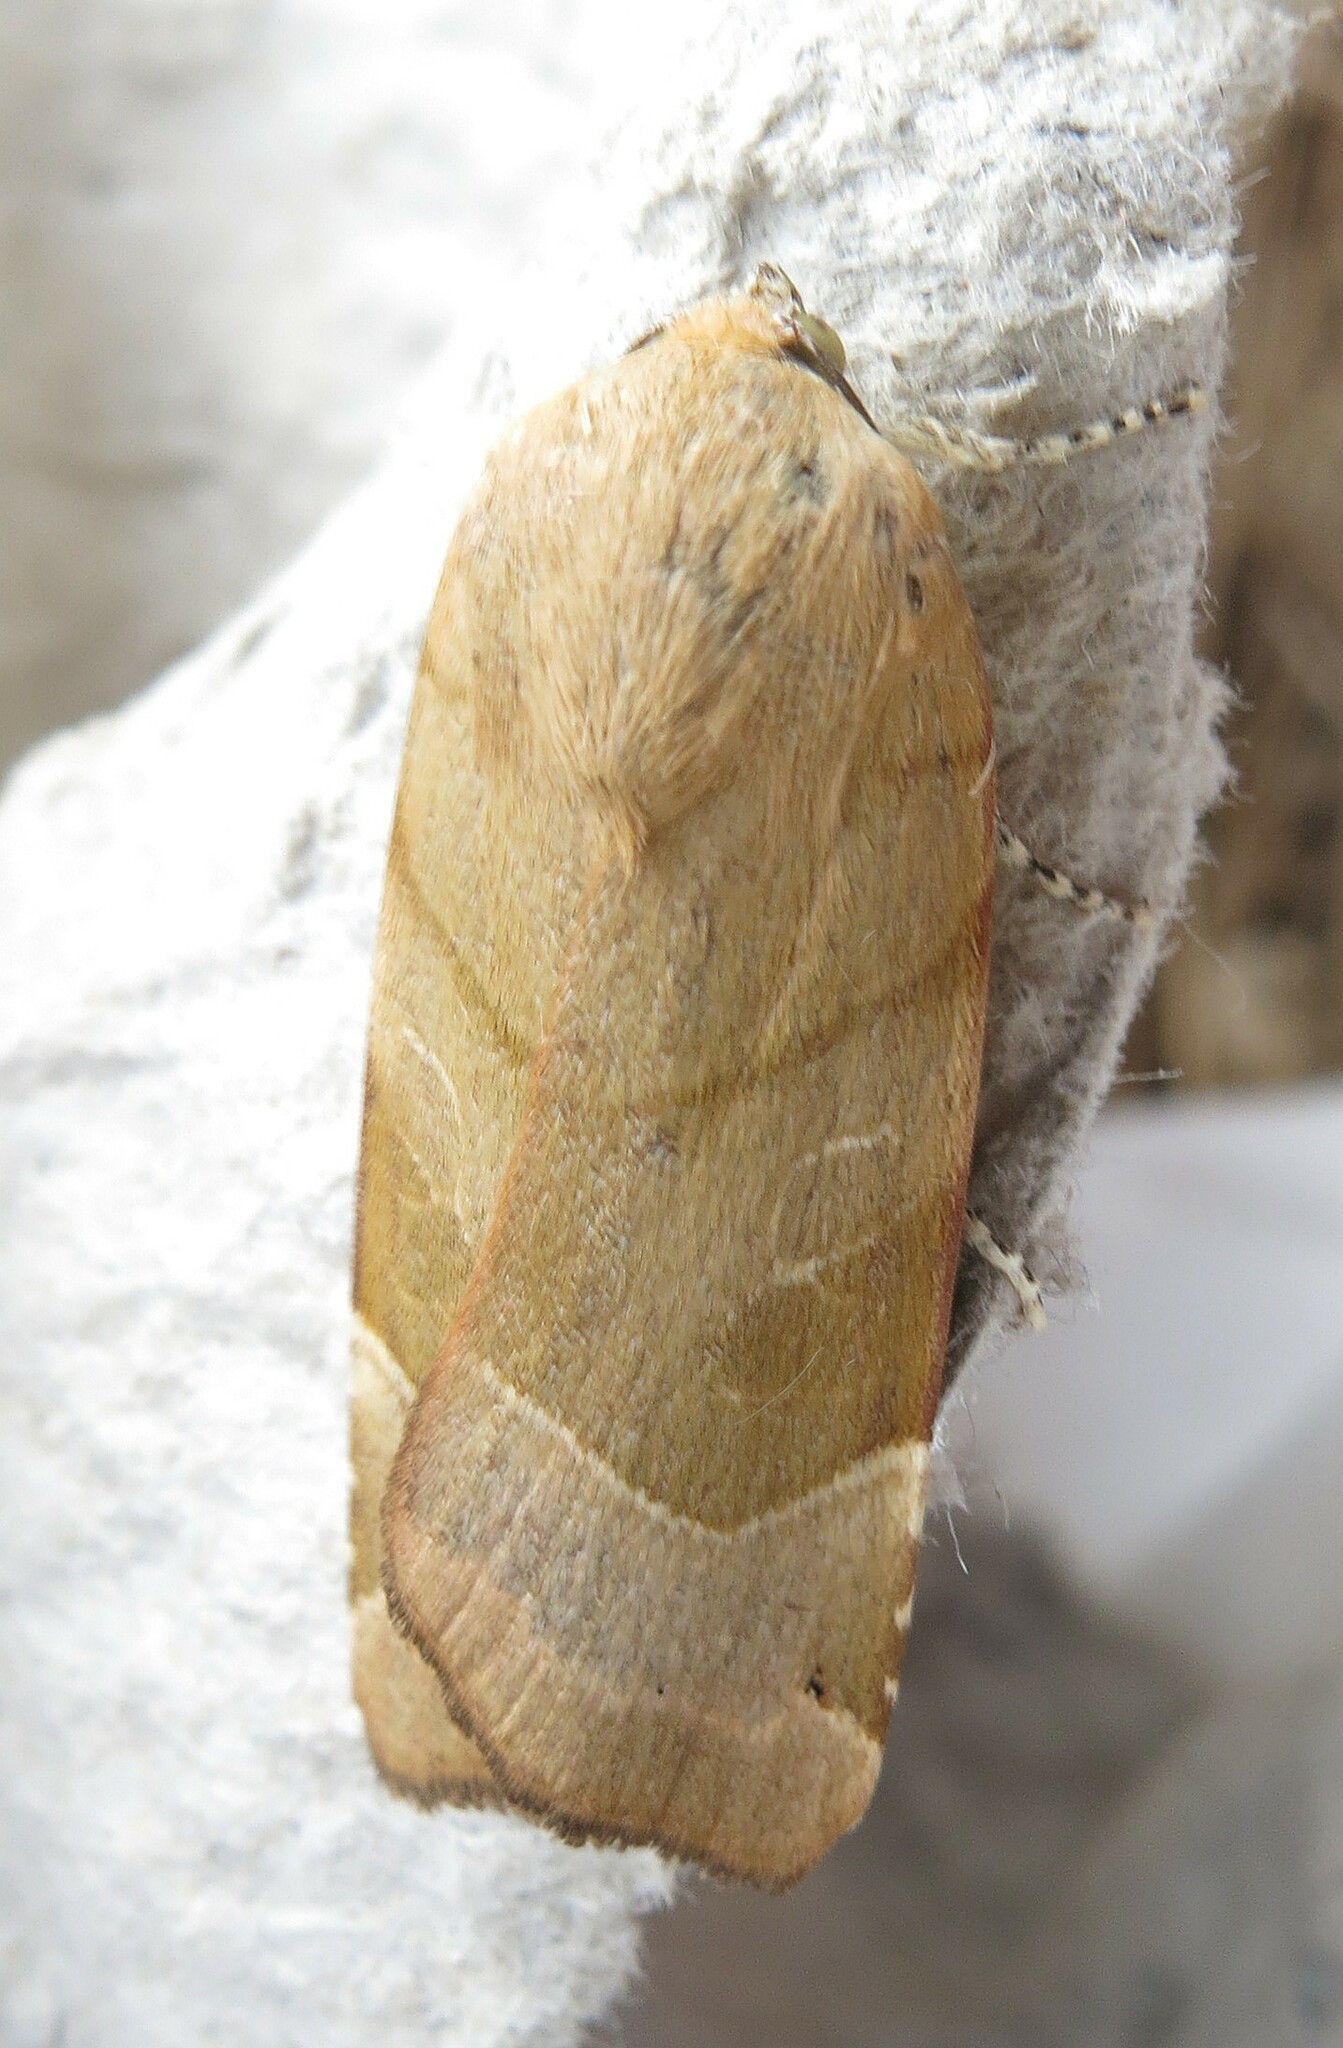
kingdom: Animalia
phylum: Arthropoda
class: Insecta
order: Lepidoptera
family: Noctuidae
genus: Noctua
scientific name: Noctua fimbriata
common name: Broad-bordered yellow underwing
